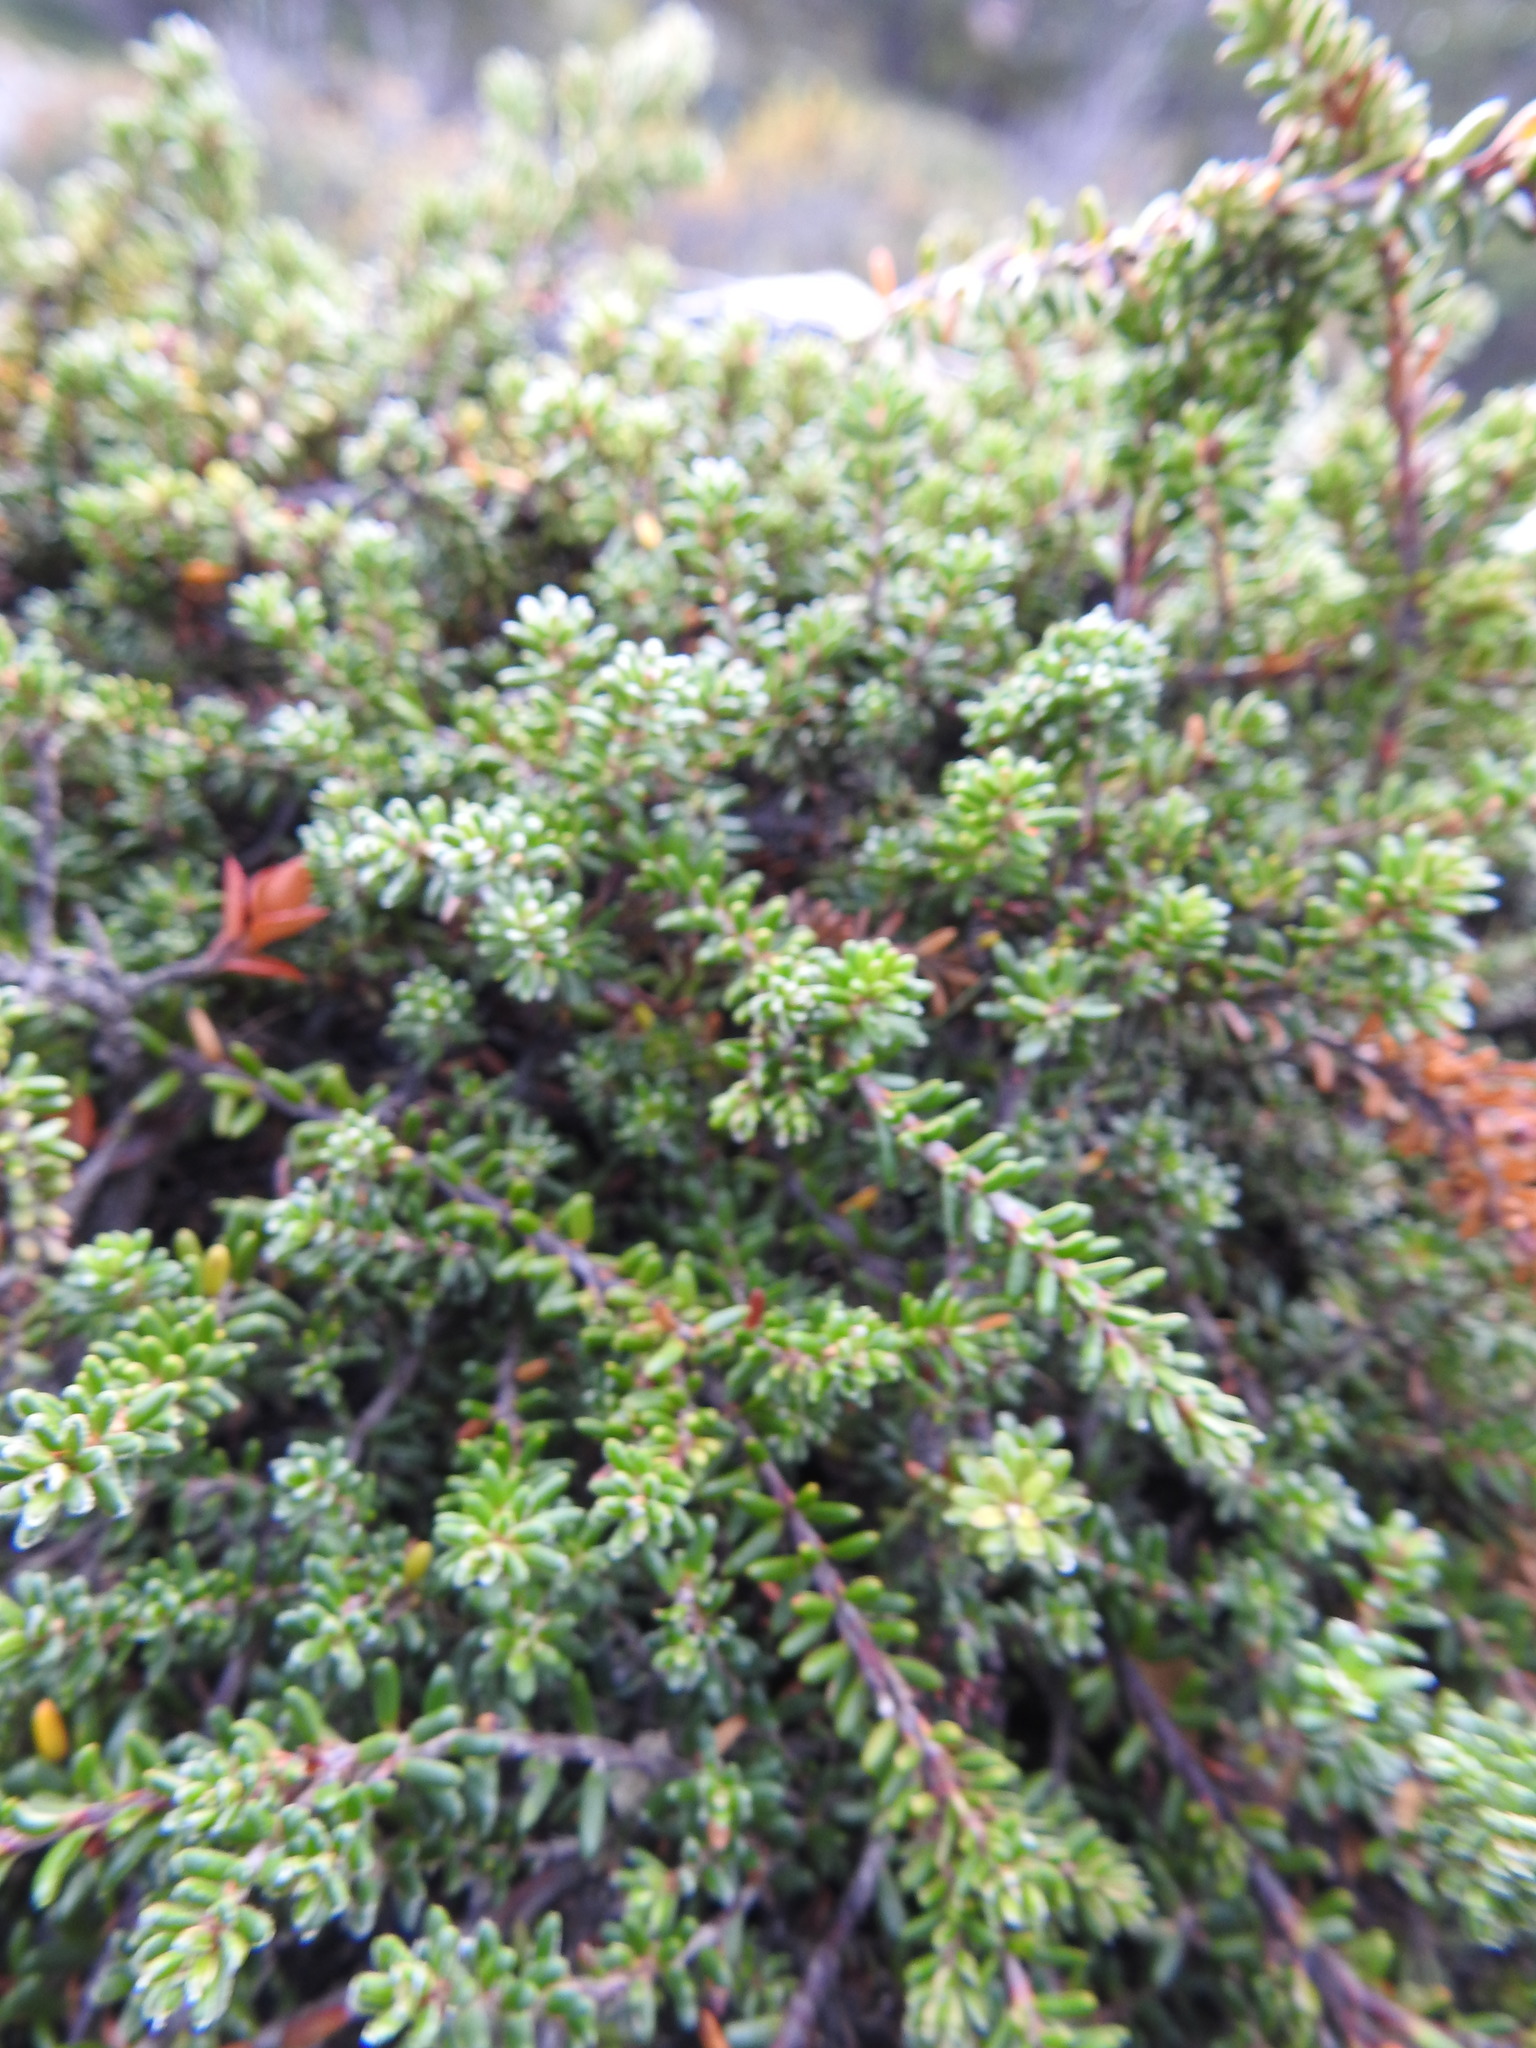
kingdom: Plantae
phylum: Tracheophyta
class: Magnoliopsida
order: Ericales
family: Ericaceae
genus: Empetrum
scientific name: Empetrum rubrum
